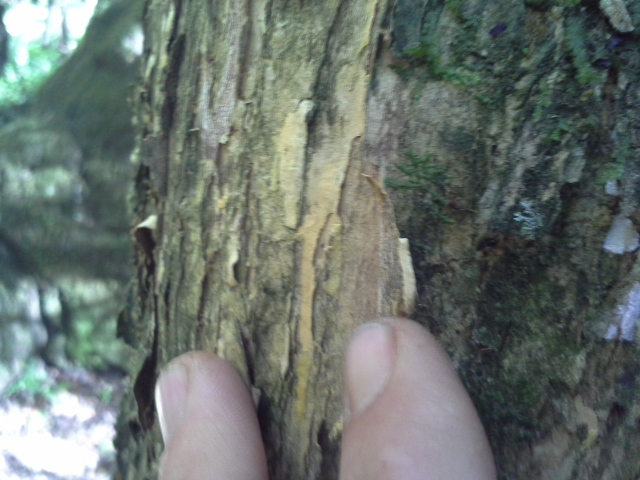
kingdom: Plantae
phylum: Tracheophyta
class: Magnoliopsida
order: Malpighiales
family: Salicaceae
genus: Scolopia
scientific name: Scolopia mundii
